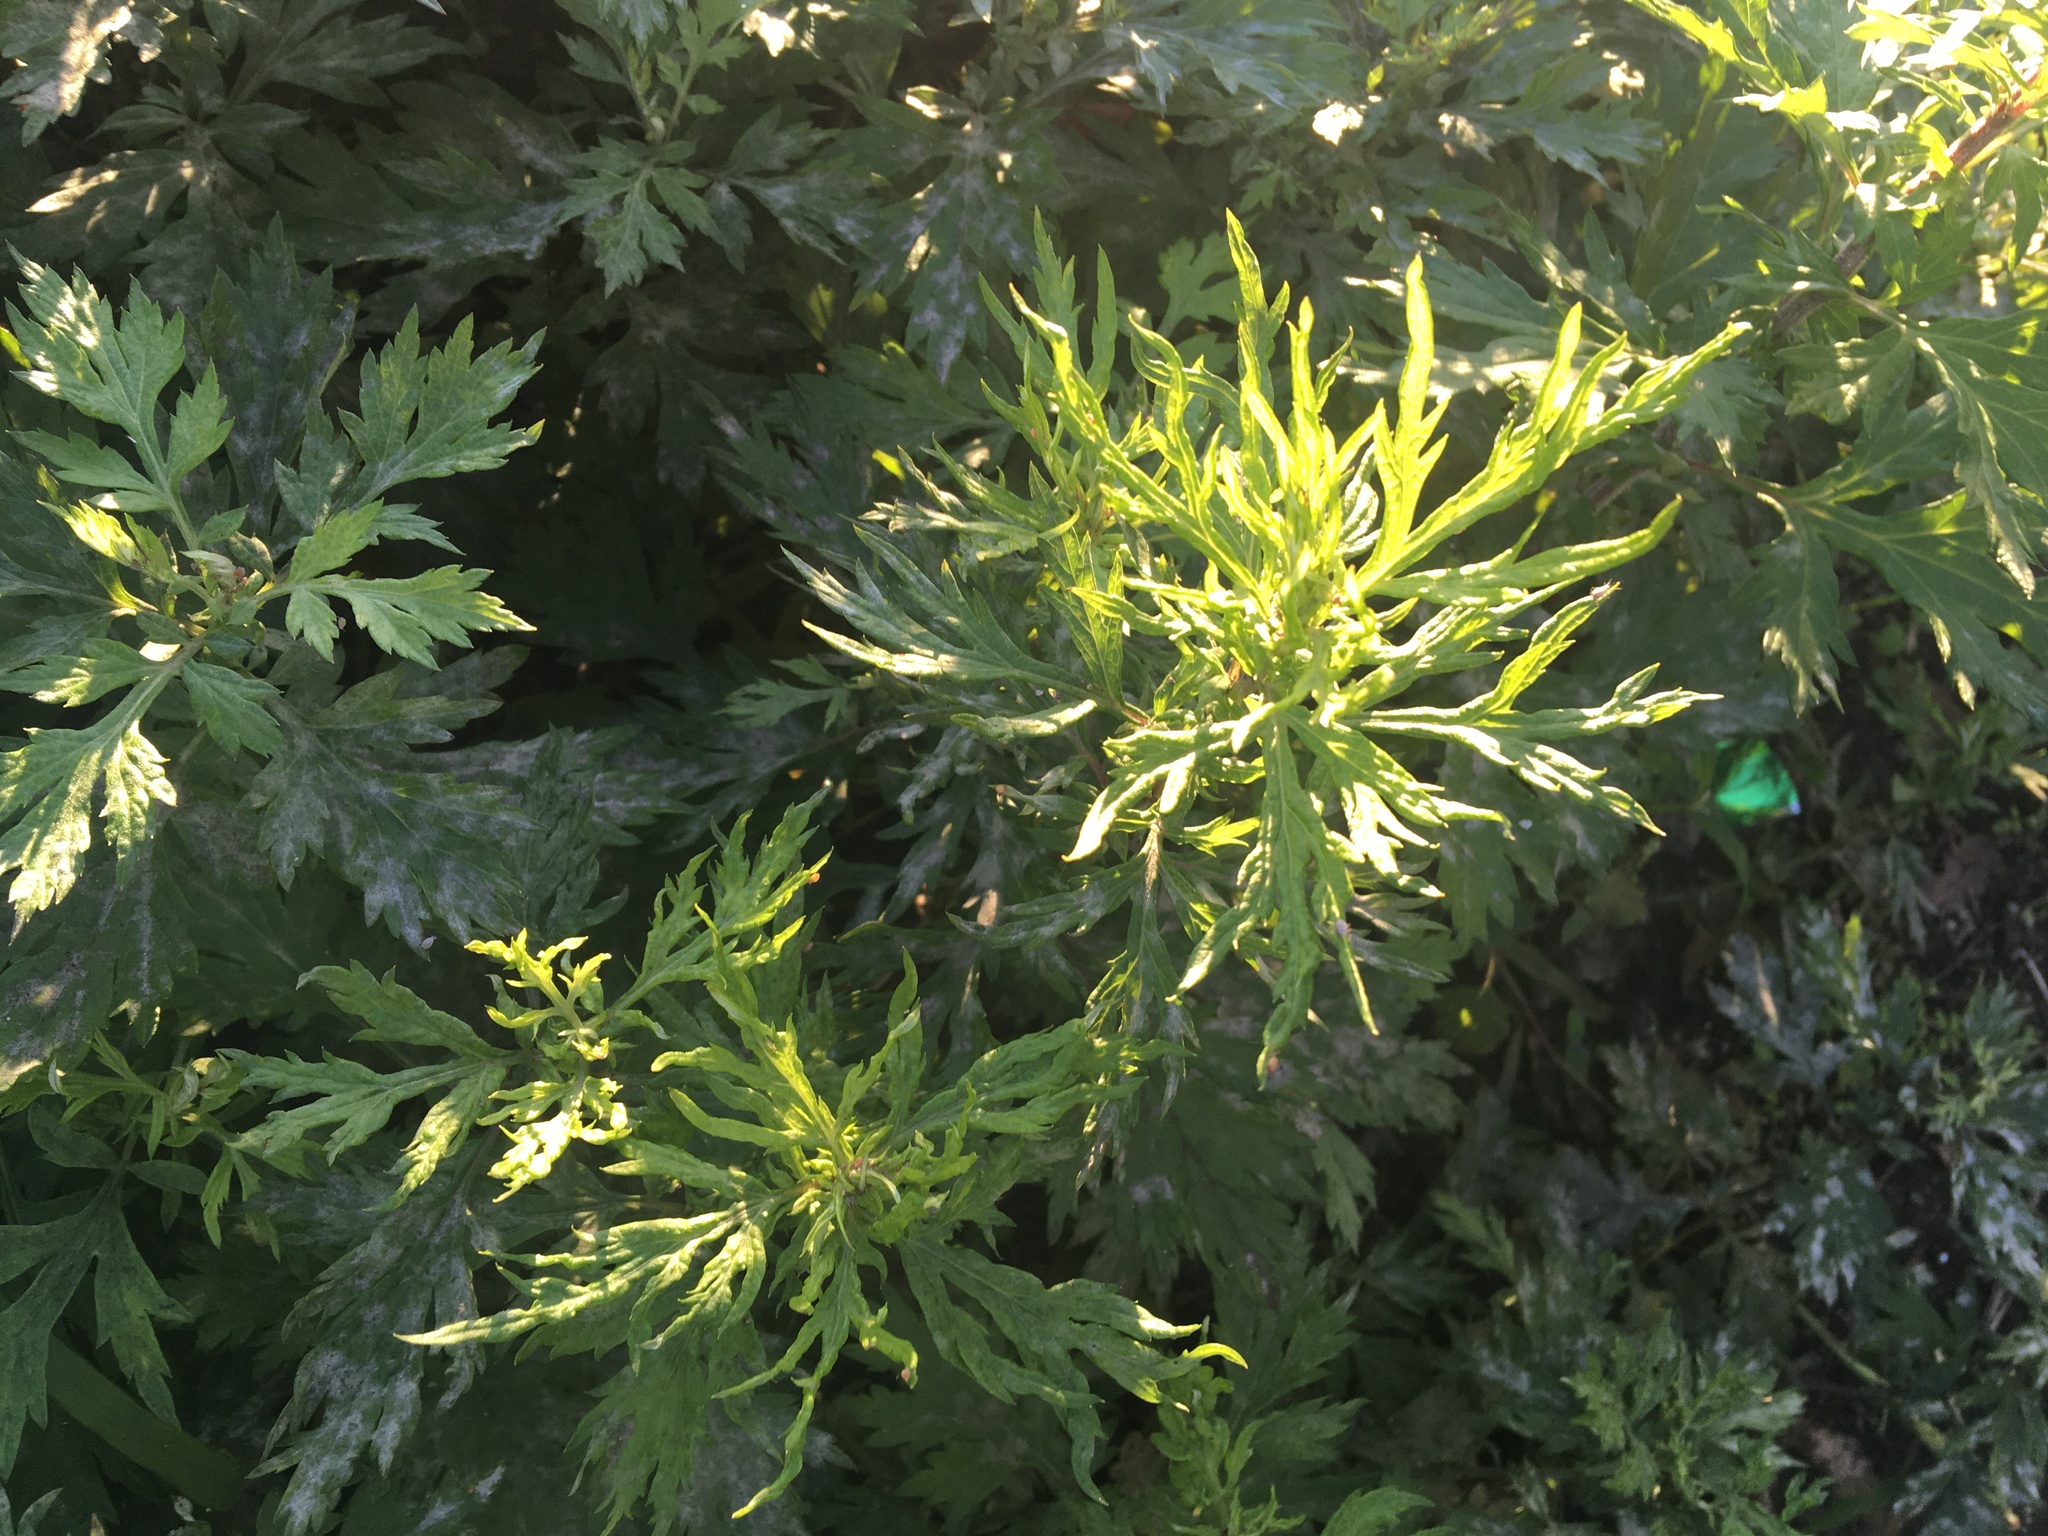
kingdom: Plantae
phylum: Tracheophyta
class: Magnoliopsida
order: Asterales
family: Asteraceae
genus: Artemisia
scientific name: Artemisia vulgaris
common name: Mugwort
